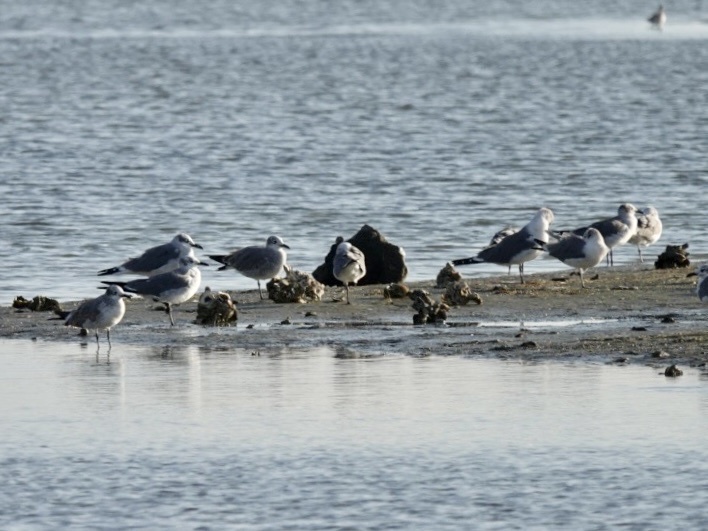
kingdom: Animalia
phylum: Chordata
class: Aves
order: Charadriiformes
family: Laridae
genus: Leucophaeus
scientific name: Leucophaeus atricilla
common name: Laughing gull
